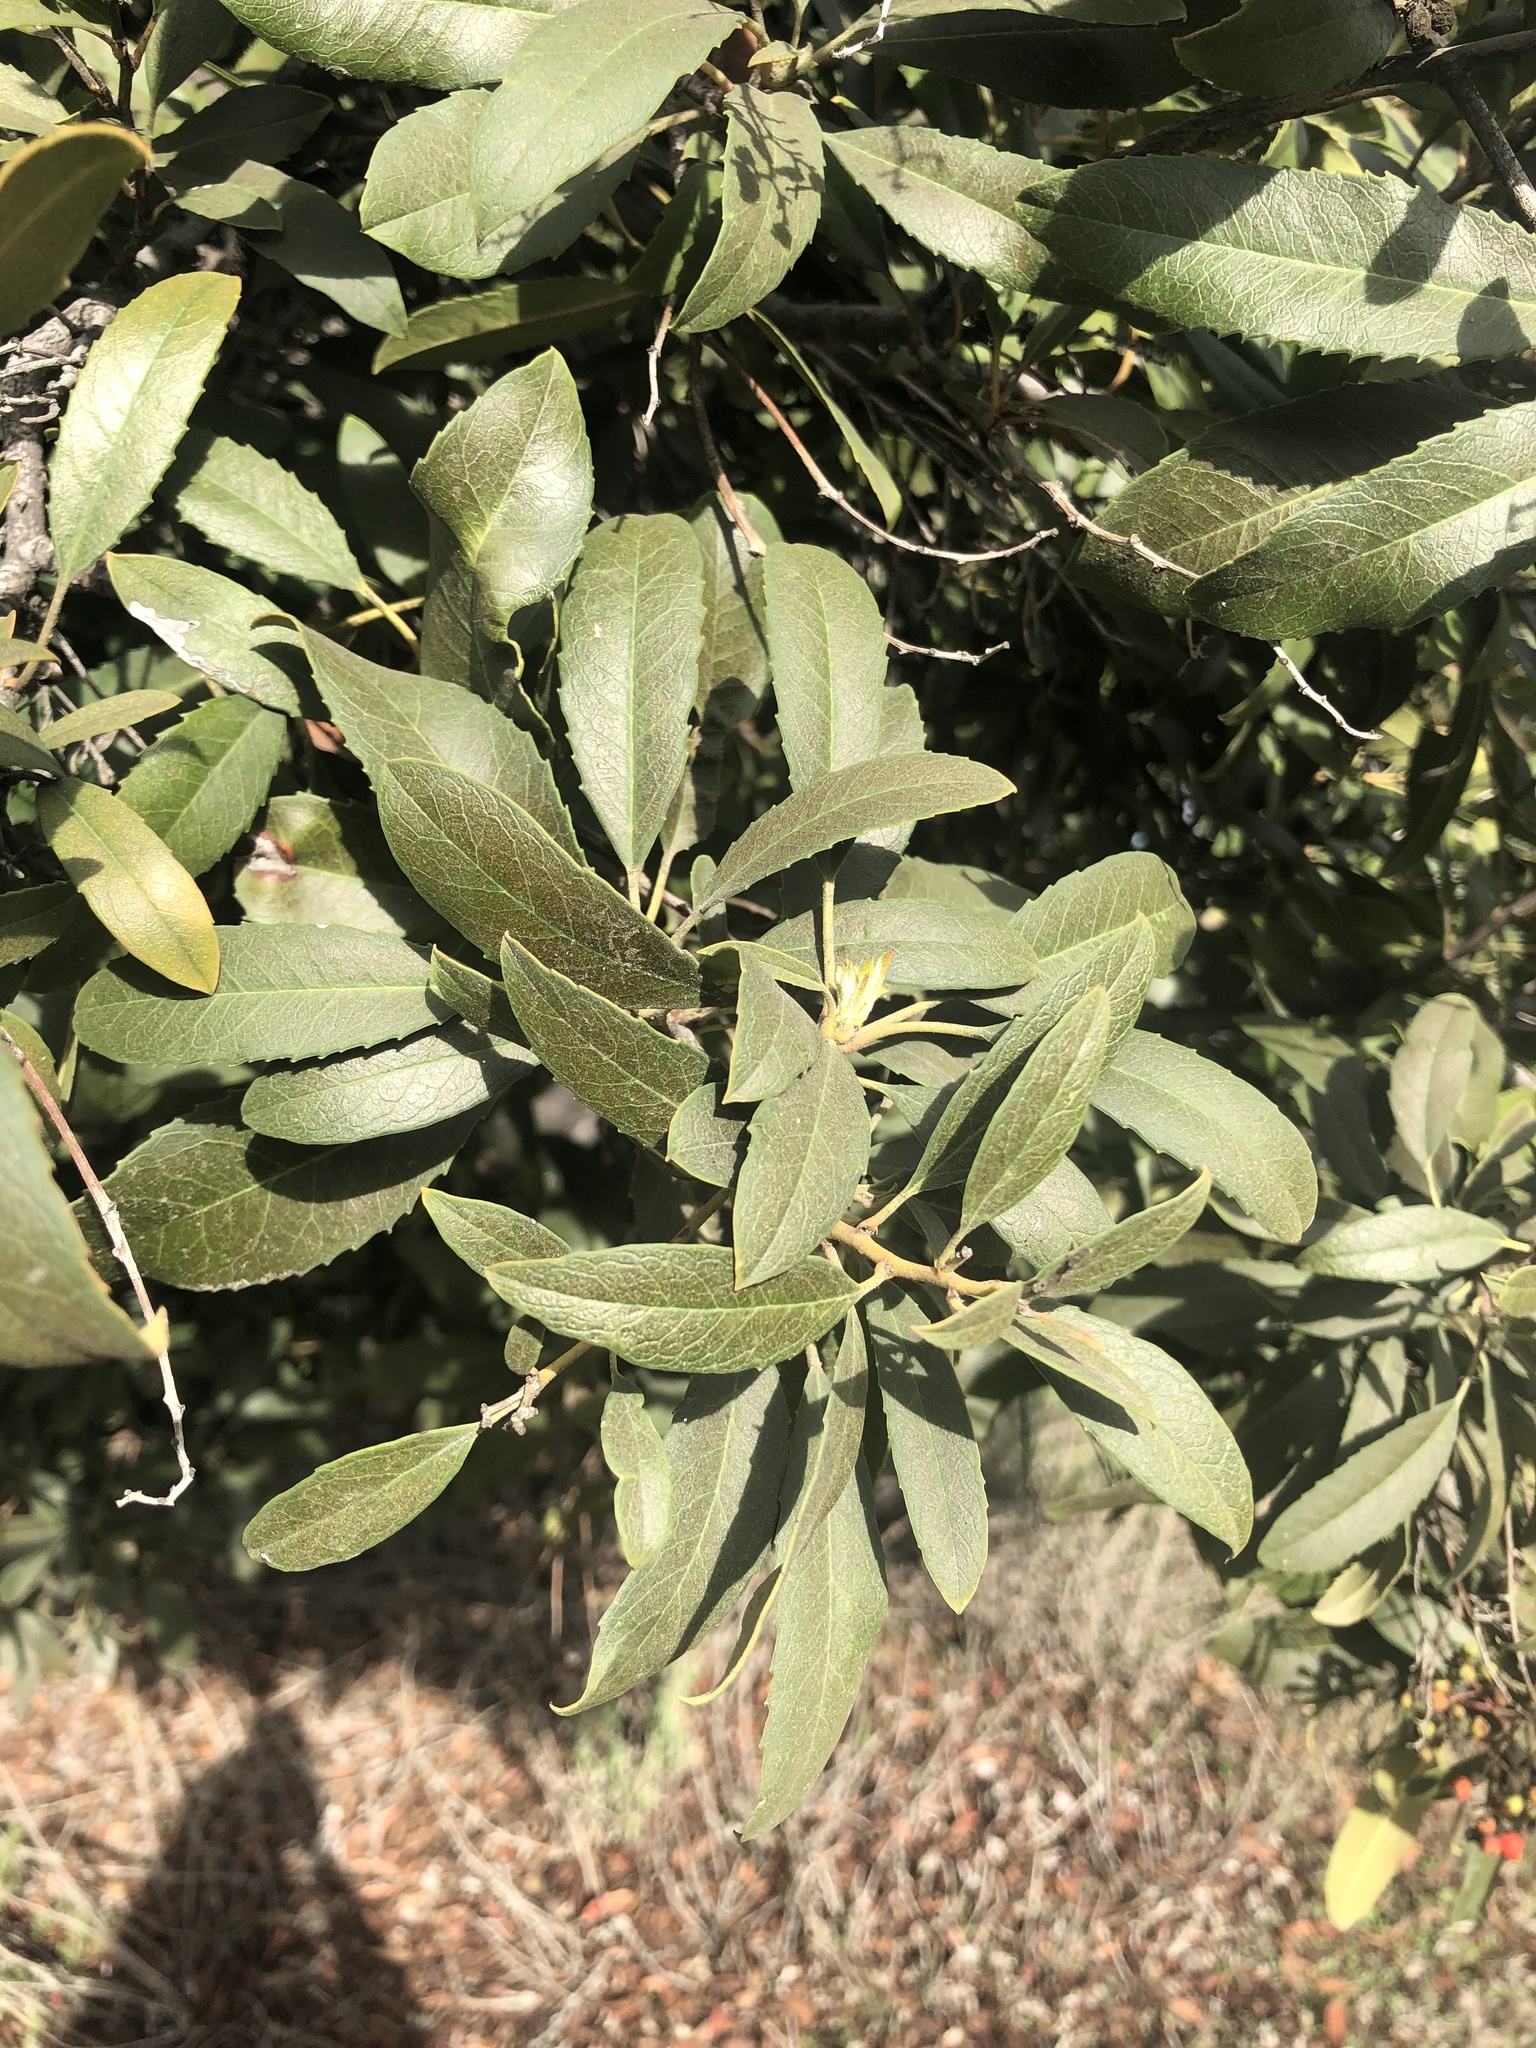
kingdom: Plantae
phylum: Tracheophyta
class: Magnoliopsida
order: Rosales
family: Rosaceae
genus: Heteromeles
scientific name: Heteromeles arbutifolia
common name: California-holly
